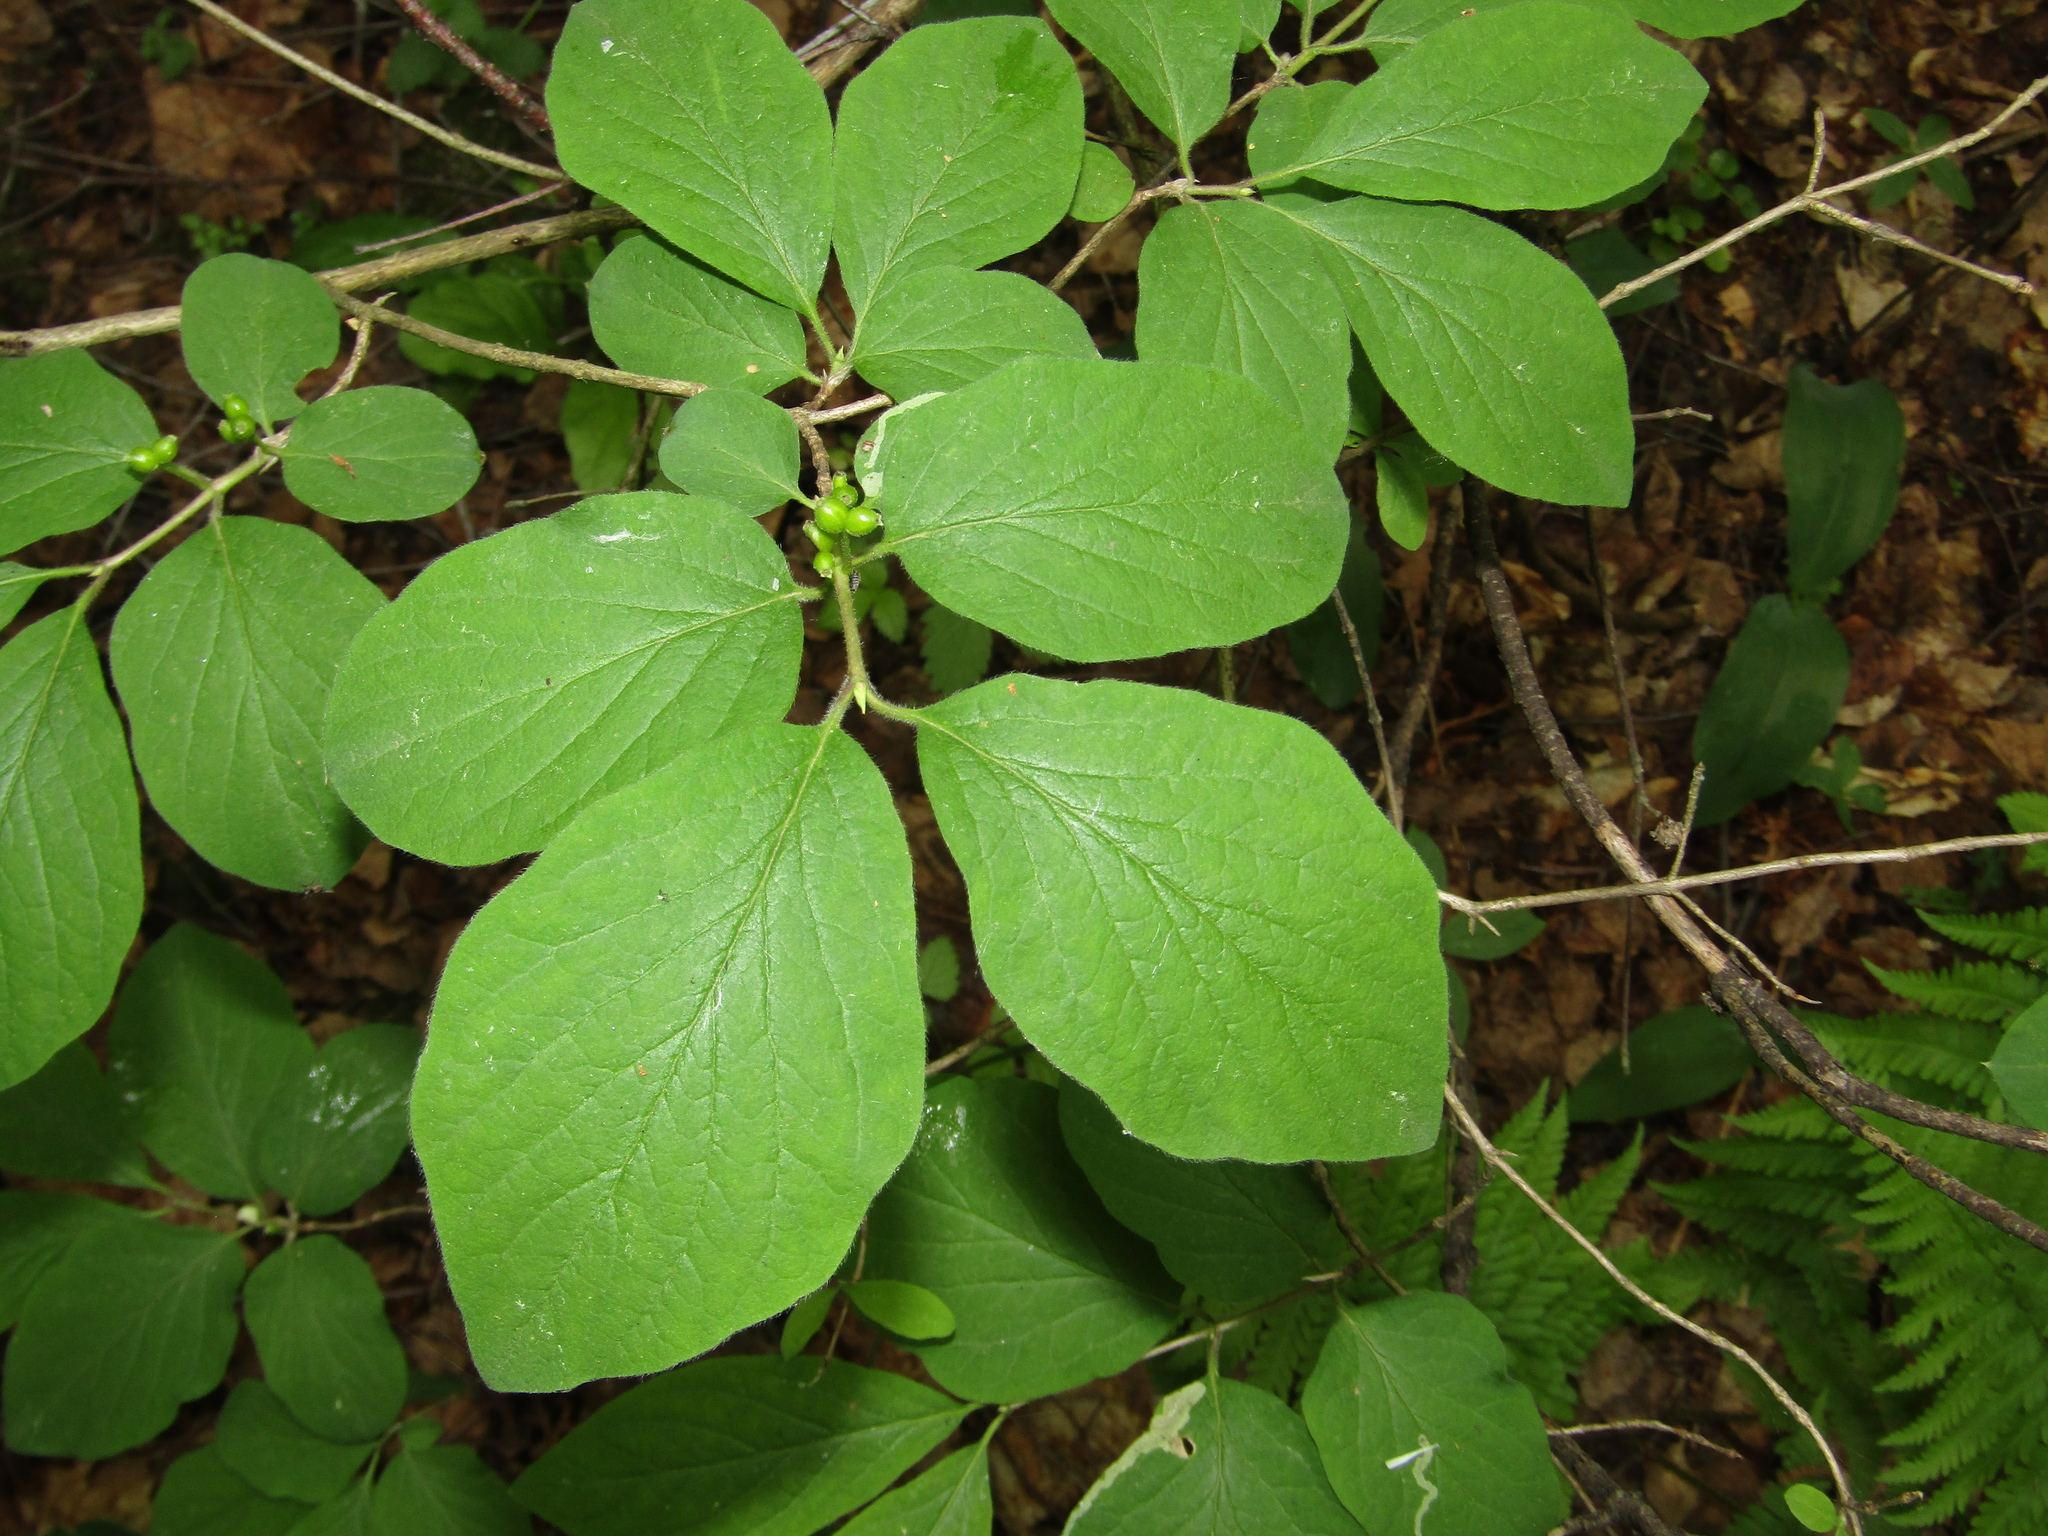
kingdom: Plantae
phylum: Tracheophyta
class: Magnoliopsida
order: Dipsacales
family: Caprifoliaceae
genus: Lonicera
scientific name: Lonicera xylosteum
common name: Fly honeysuckle
